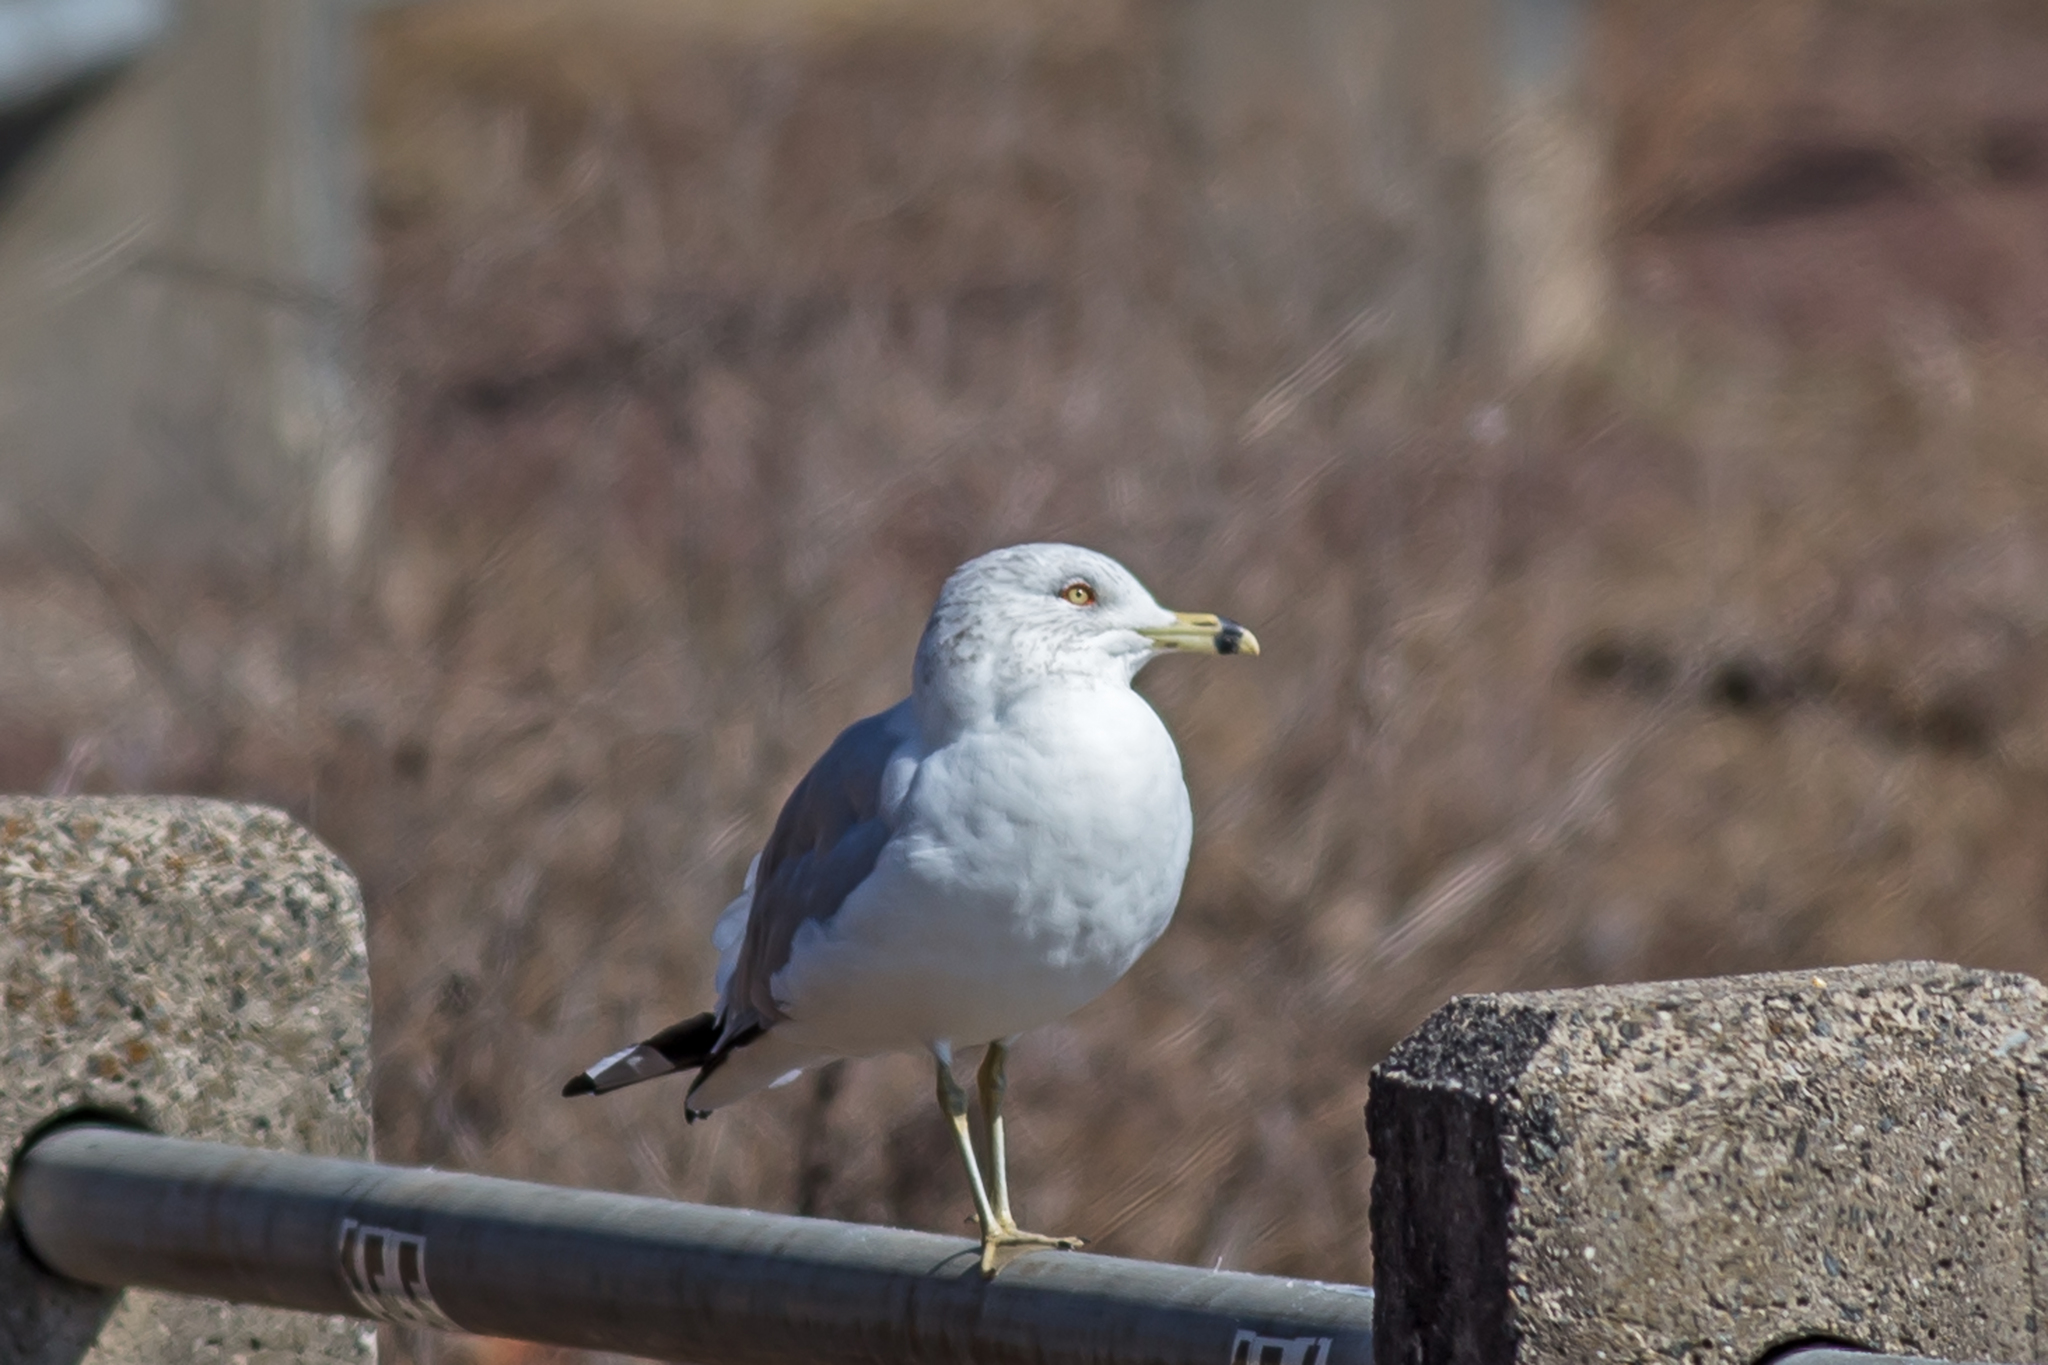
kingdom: Animalia
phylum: Chordata
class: Aves
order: Charadriiformes
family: Laridae
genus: Larus
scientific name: Larus delawarensis
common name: Ring-billed gull
